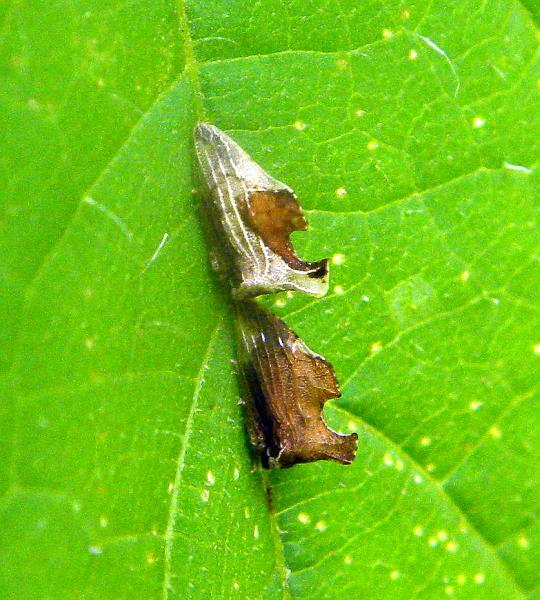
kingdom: Animalia
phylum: Arthropoda
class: Insecta
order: Hemiptera
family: Membracidae
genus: Entylia
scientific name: Entylia carinata
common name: Keeled treehopper
